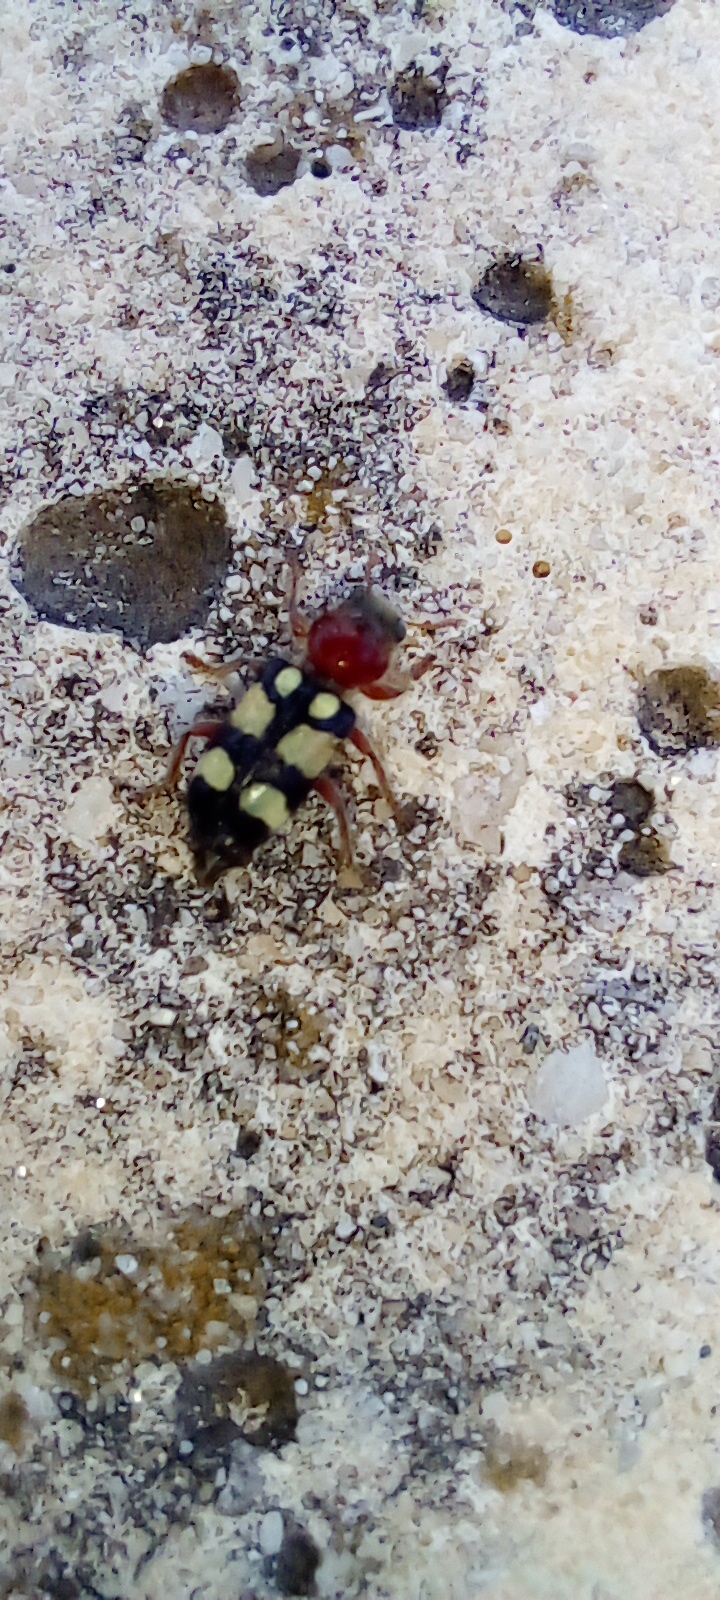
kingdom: Animalia
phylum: Arthropoda
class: Insecta
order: Coleoptera
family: Cleridae
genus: Enoclerus
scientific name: Enoclerus
